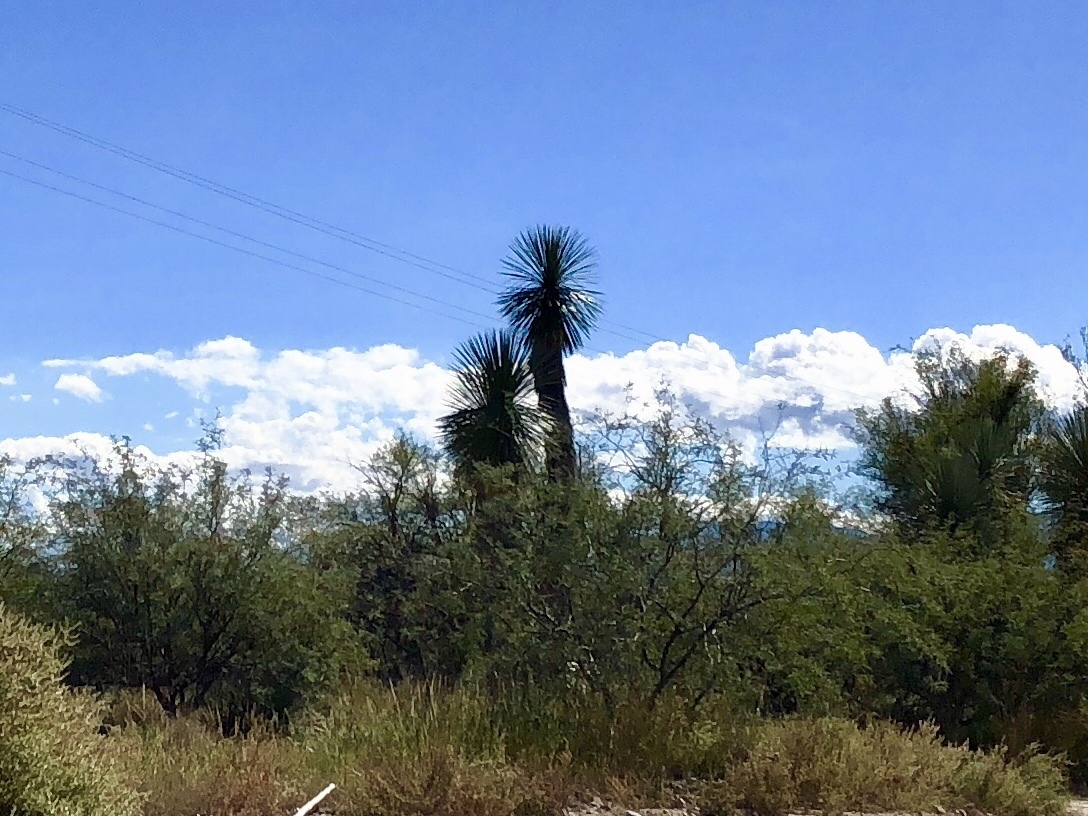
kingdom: Plantae
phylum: Tracheophyta
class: Liliopsida
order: Asparagales
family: Asparagaceae
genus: Yucca
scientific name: Yucca elata
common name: Palmella
